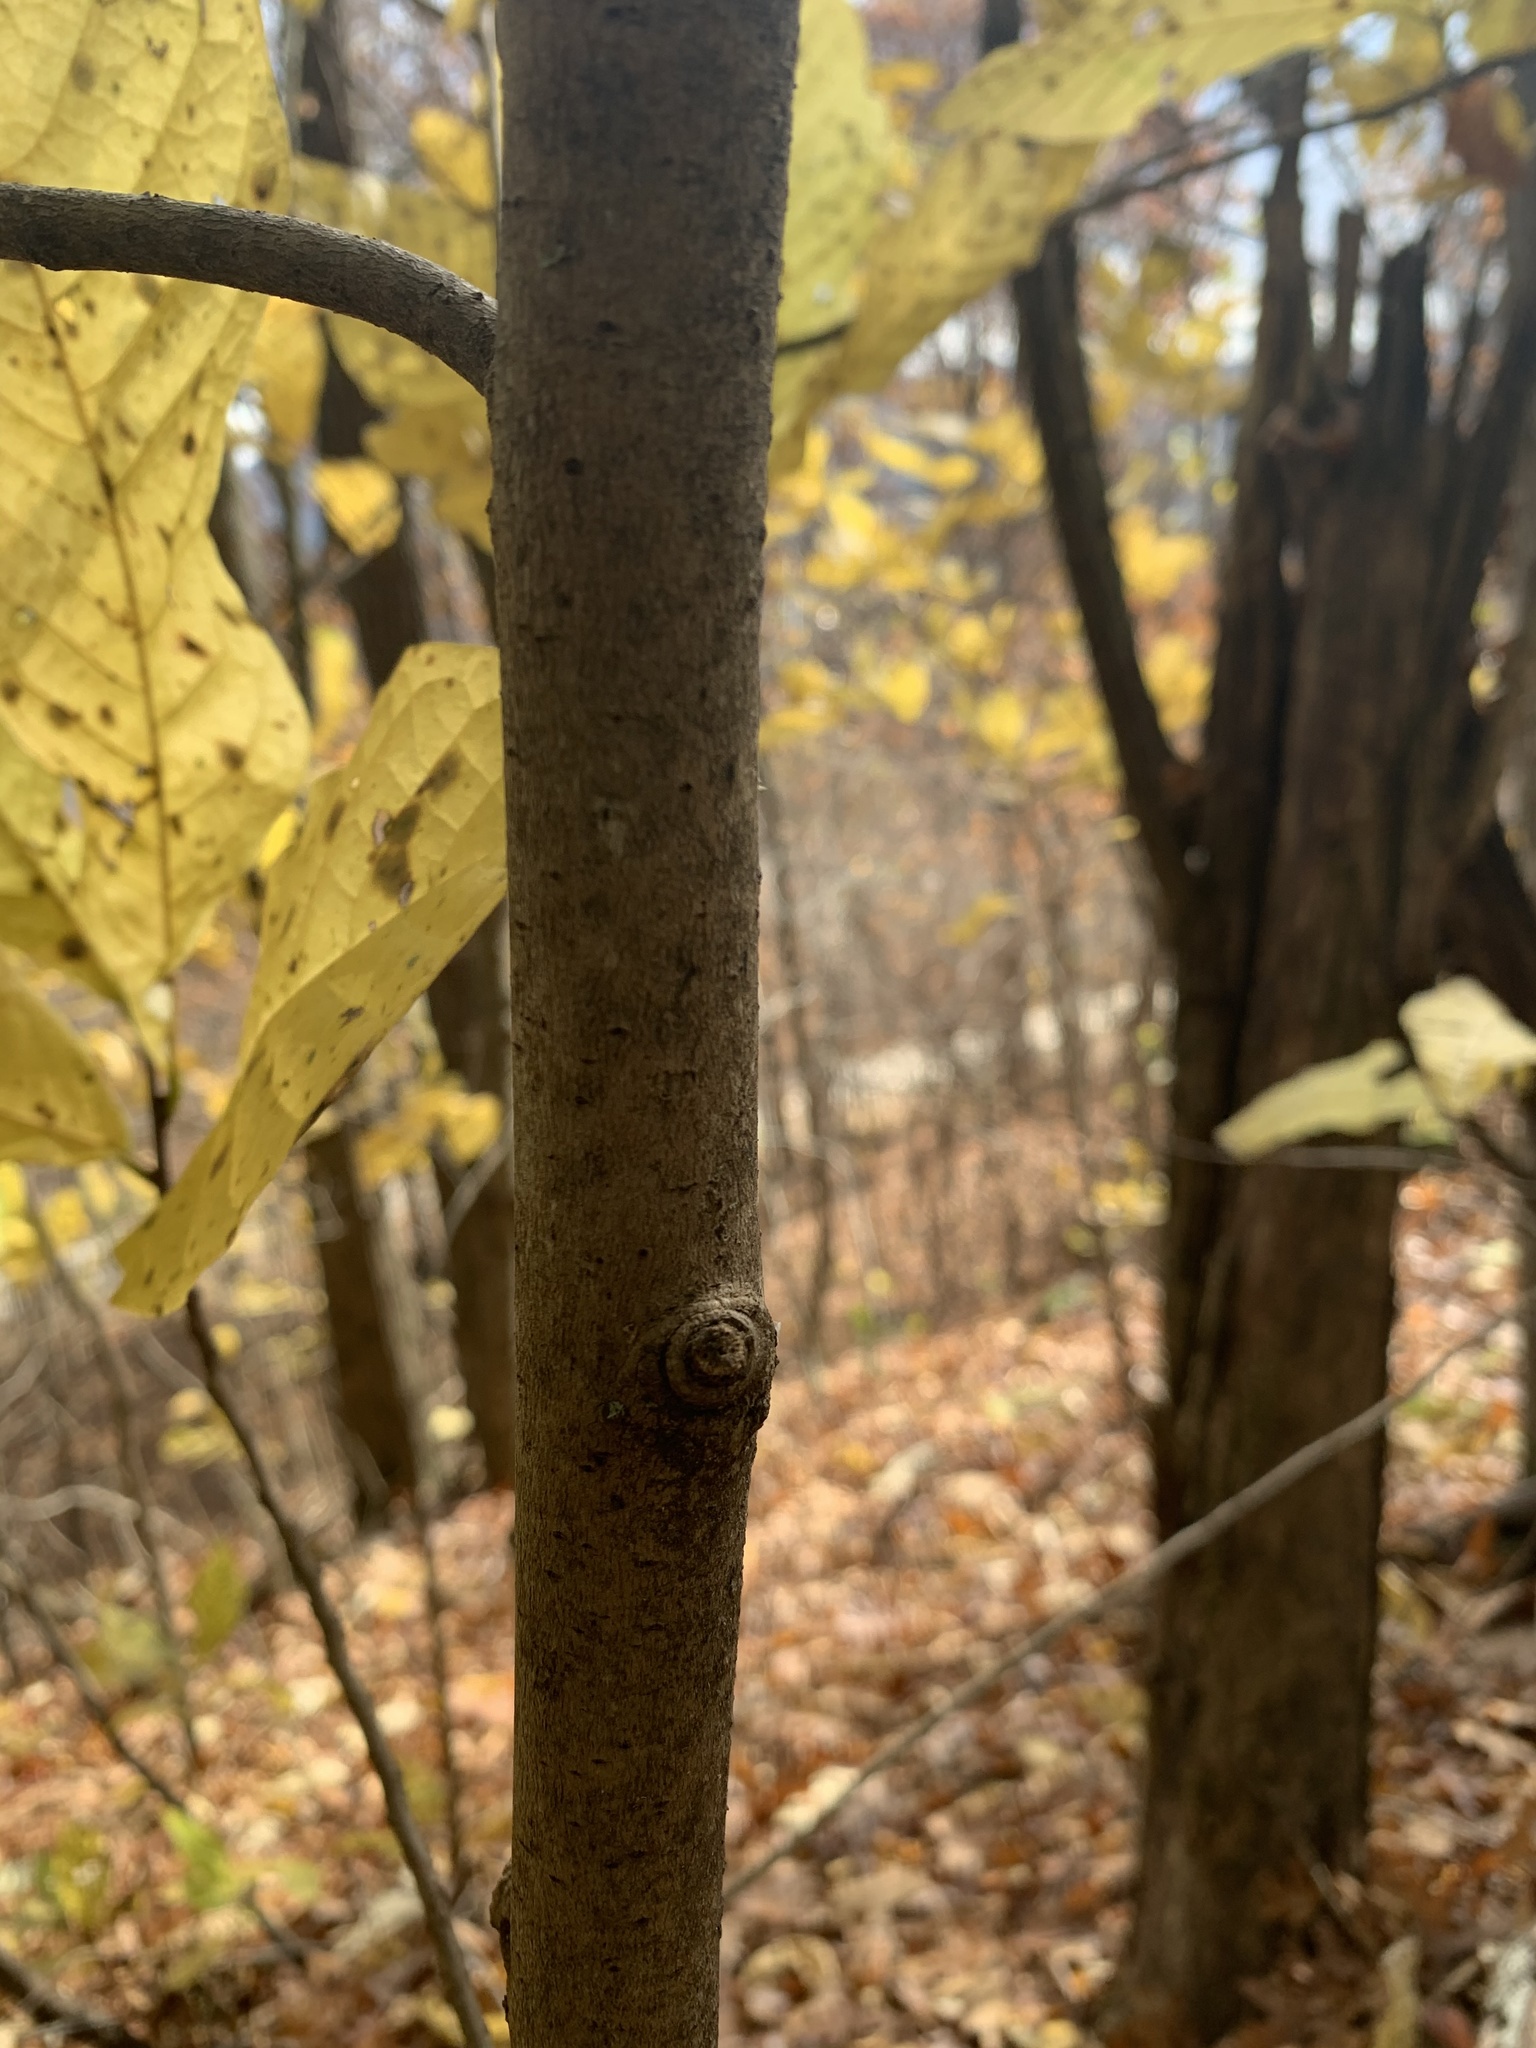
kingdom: Plantae
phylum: Tracheophyta
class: Magnoliopsida
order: Magnoliales
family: Annonaceae
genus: Asimina
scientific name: Asimina triloba
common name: Dog-banana
